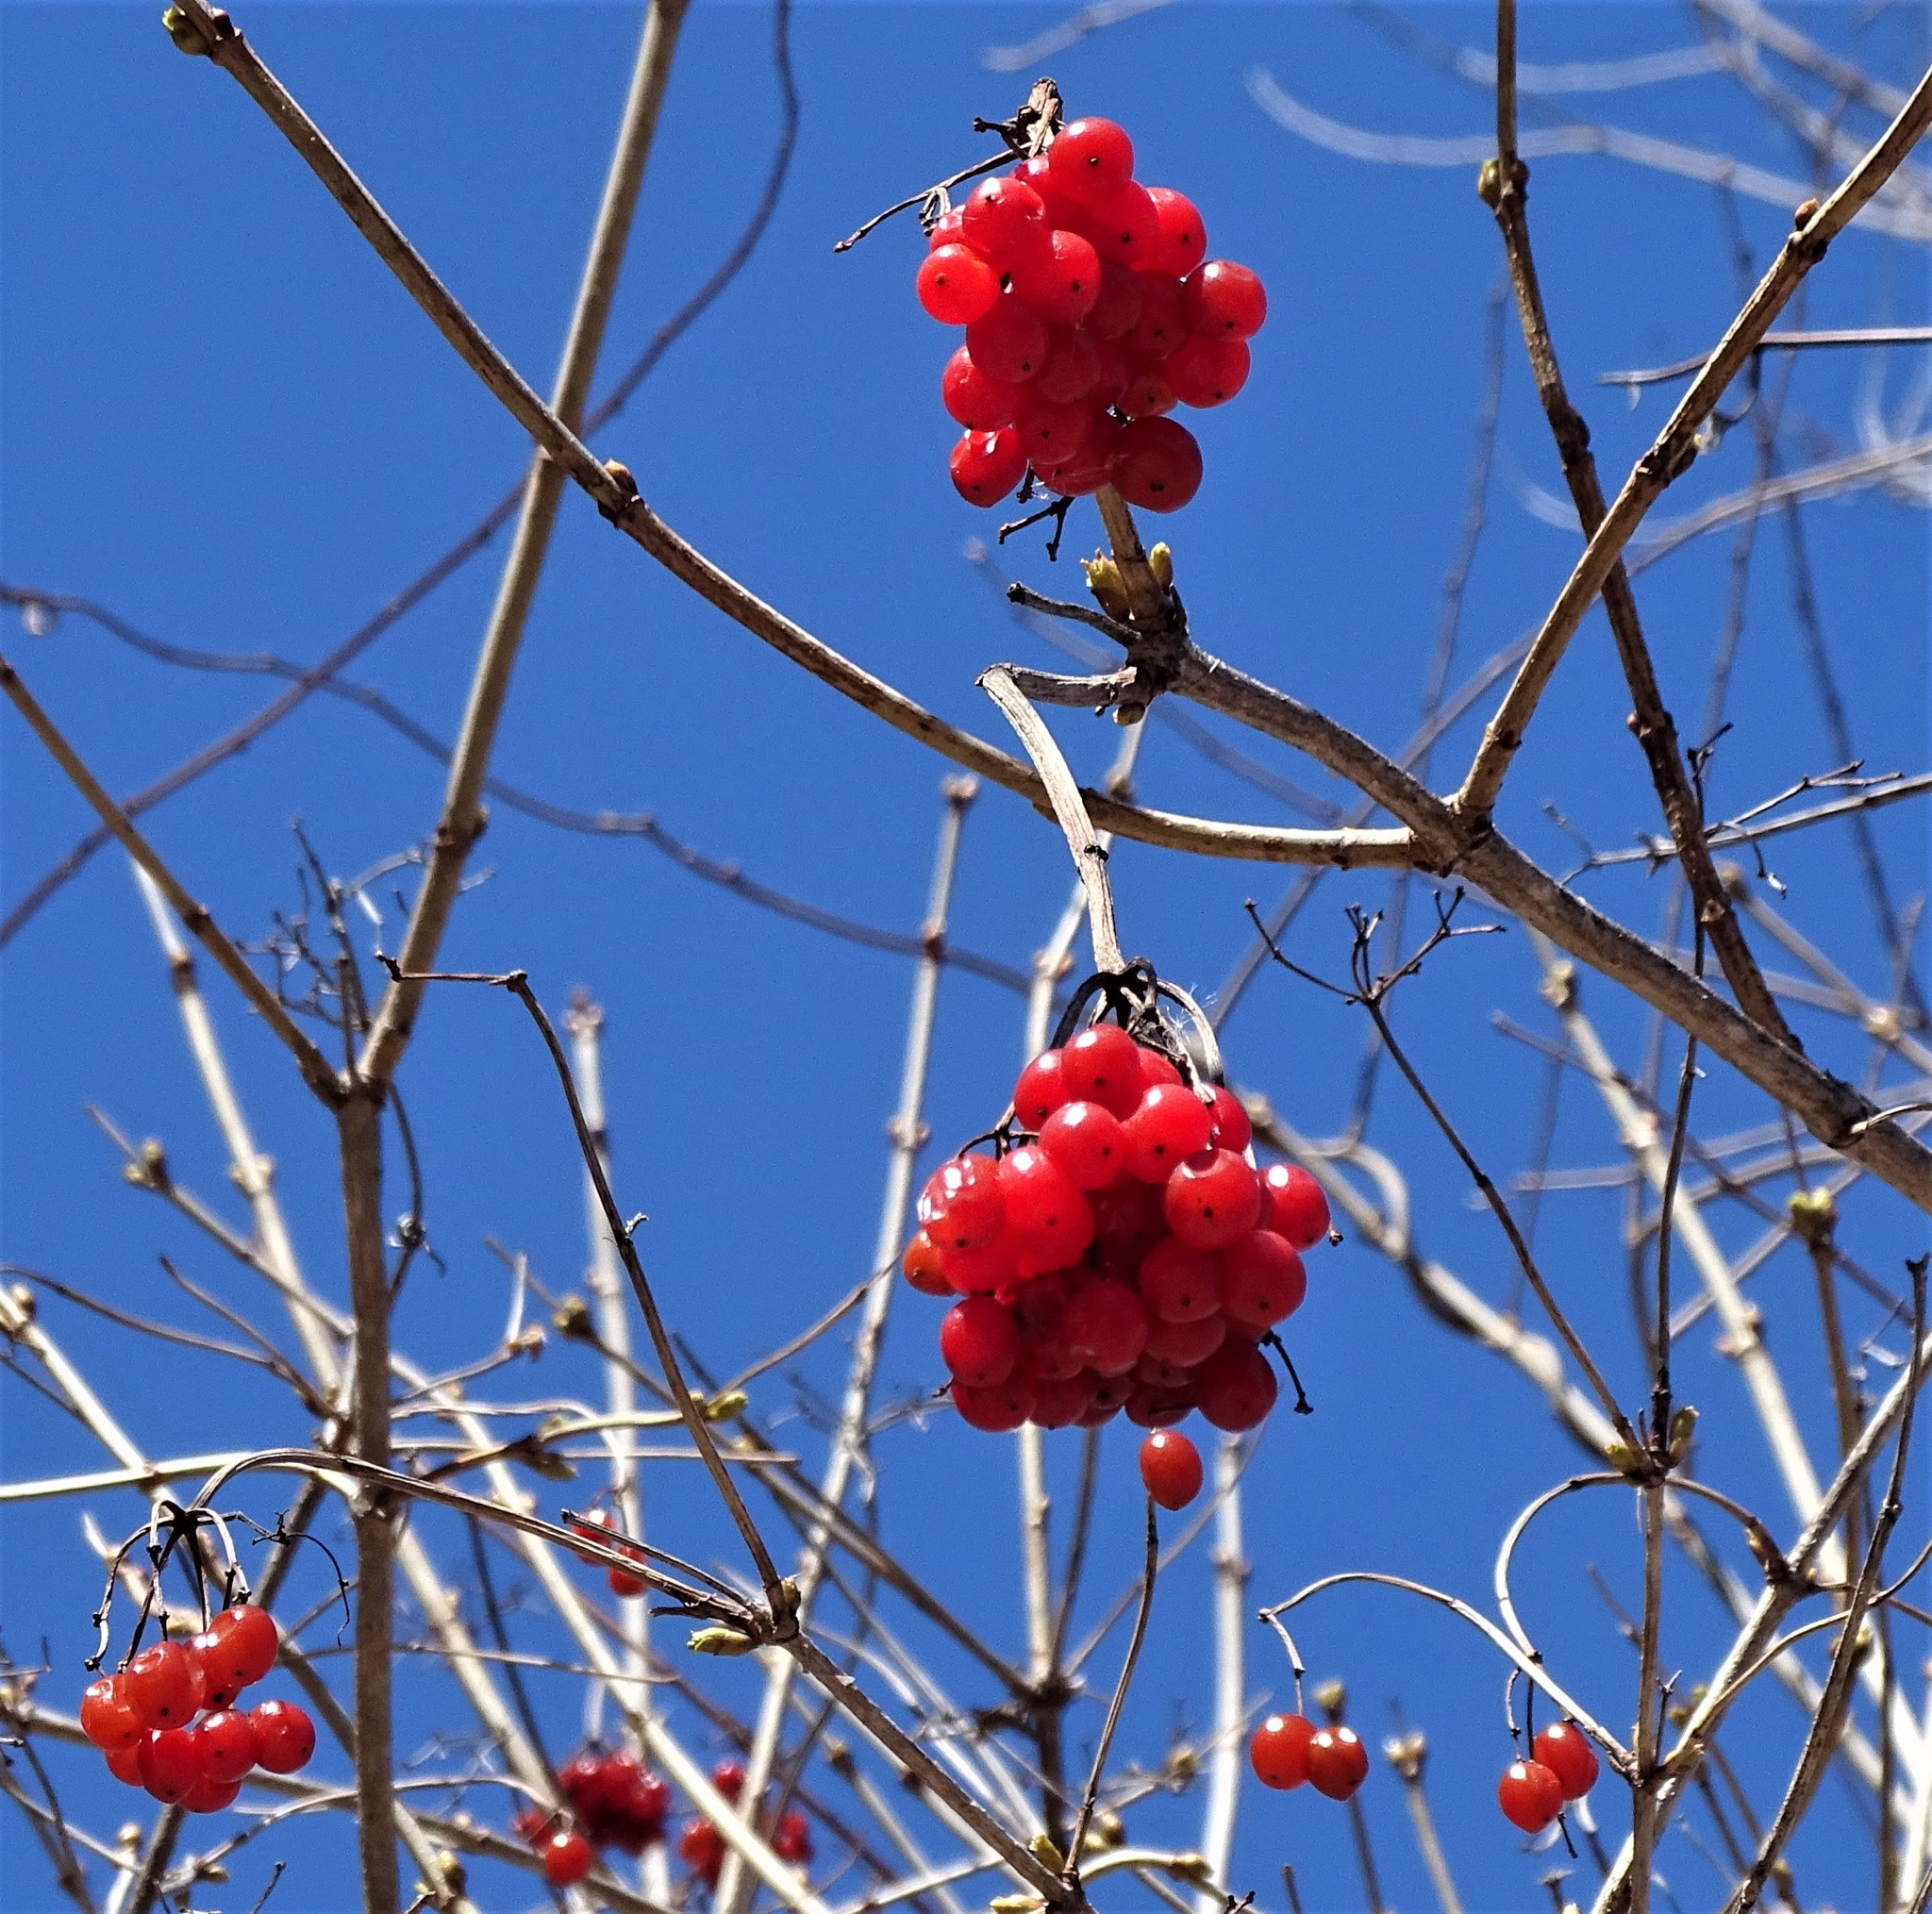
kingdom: Plantae
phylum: Tracheophyta
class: Magnoliopsida
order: Dipsacales
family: Viburnaceae
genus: Viburnum
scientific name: Viburnum opulus
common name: Guelder-rose
